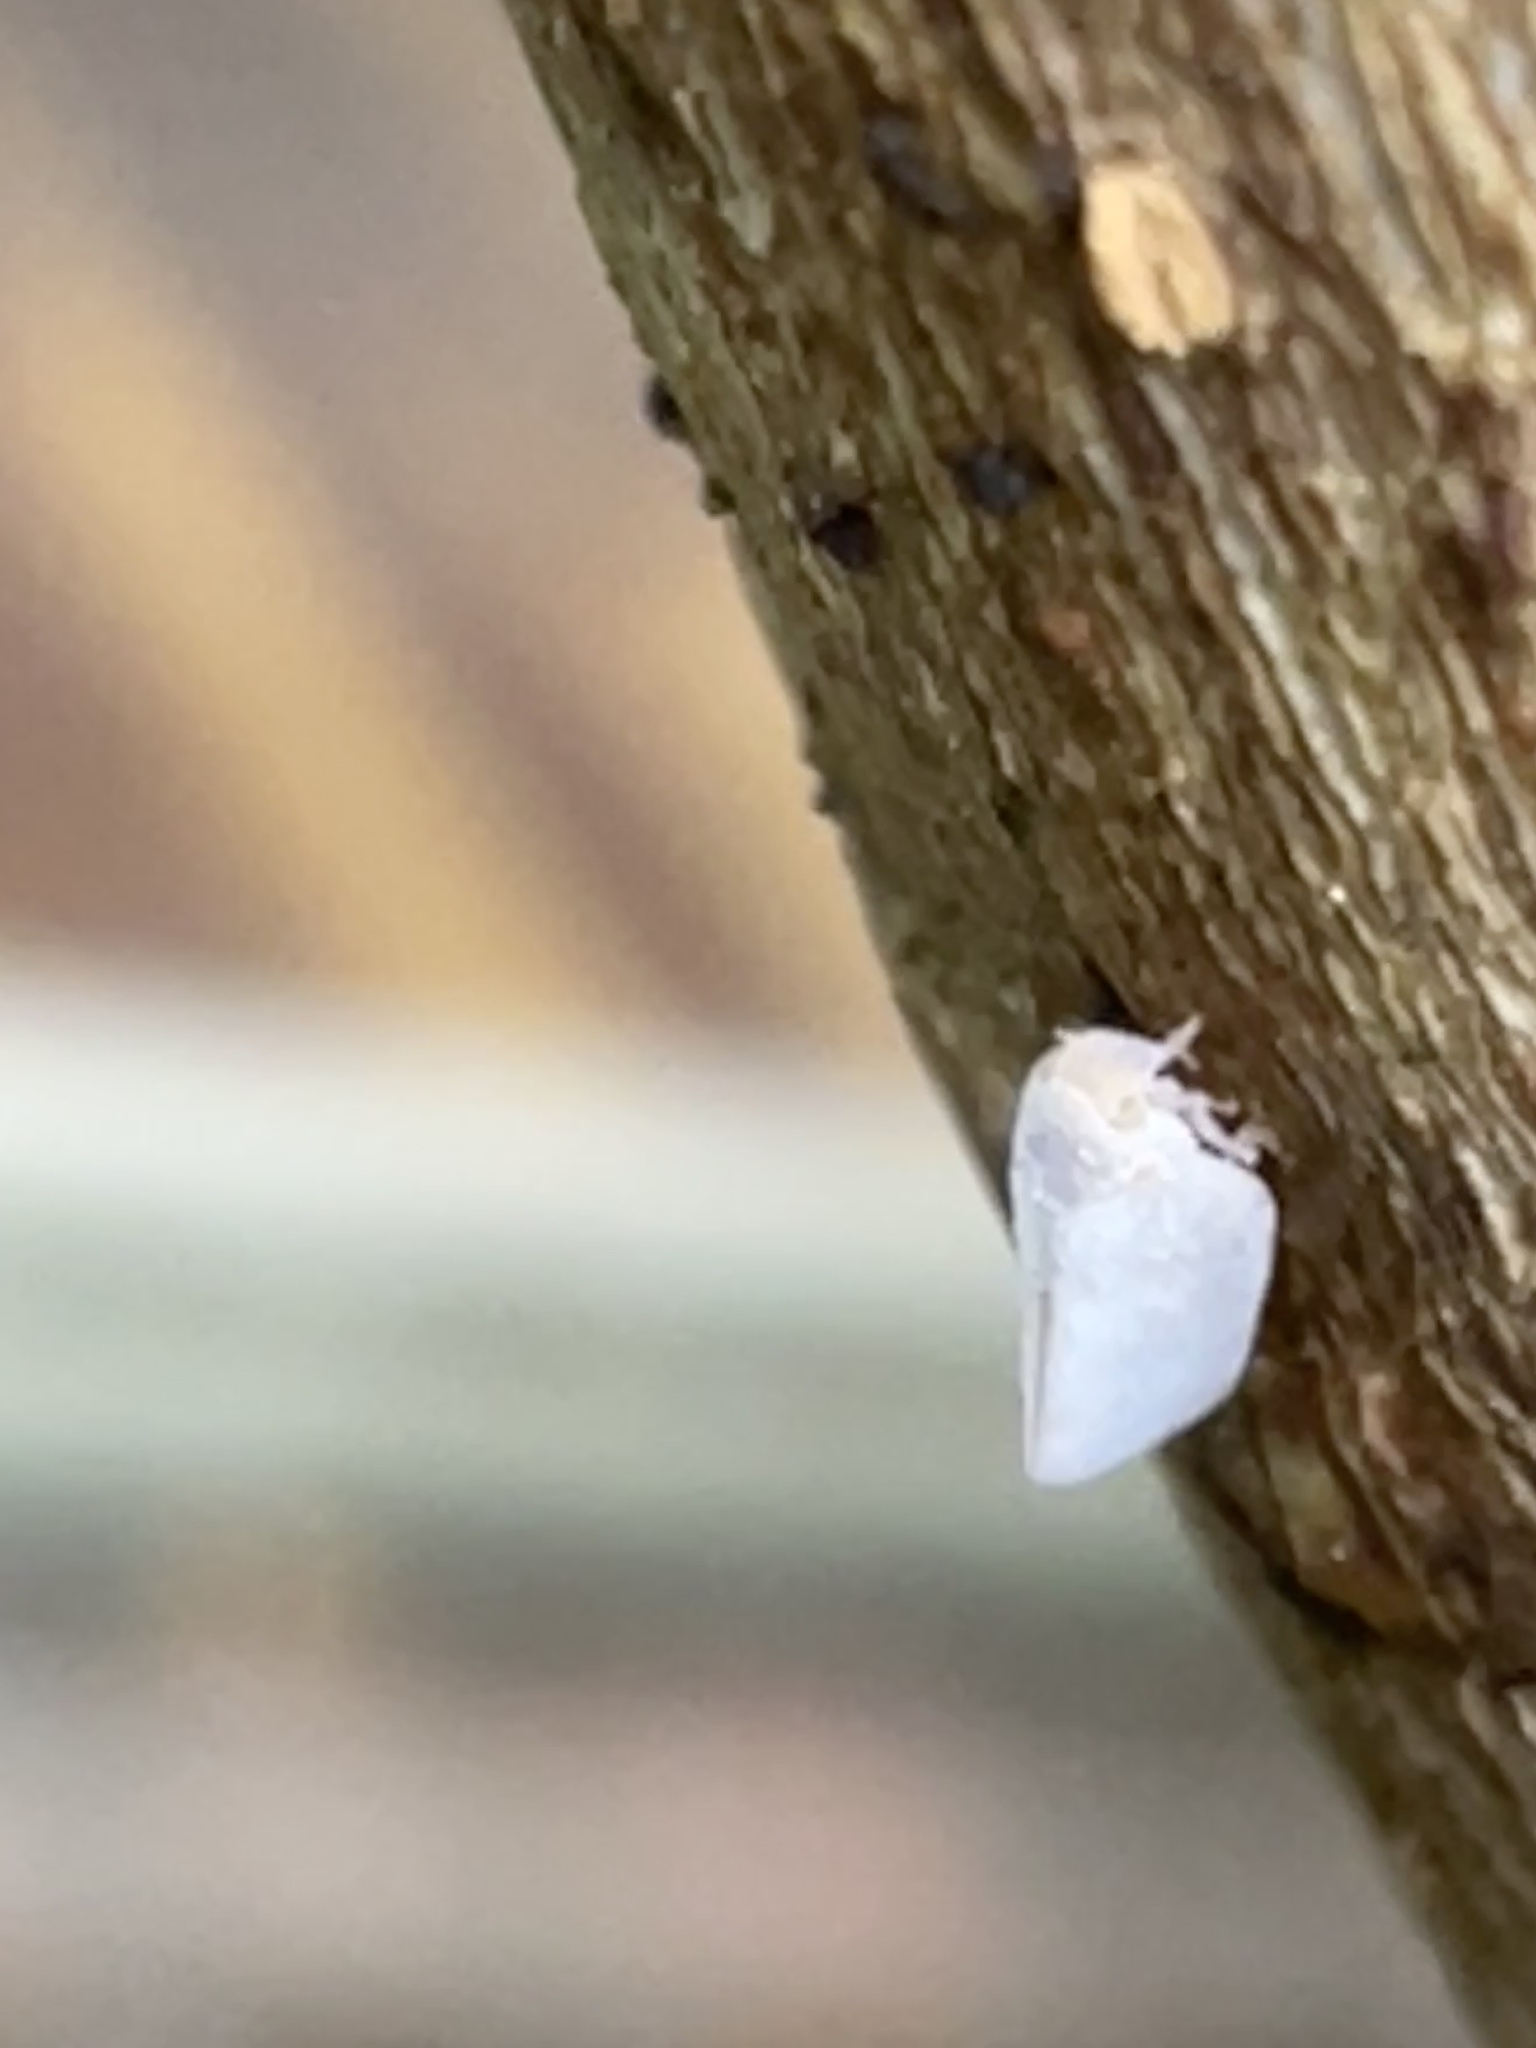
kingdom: Animalia
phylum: Arthropoda
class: Insecta
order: Hemiptera
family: Flatidae
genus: Anzora
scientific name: Anzora unicolor
